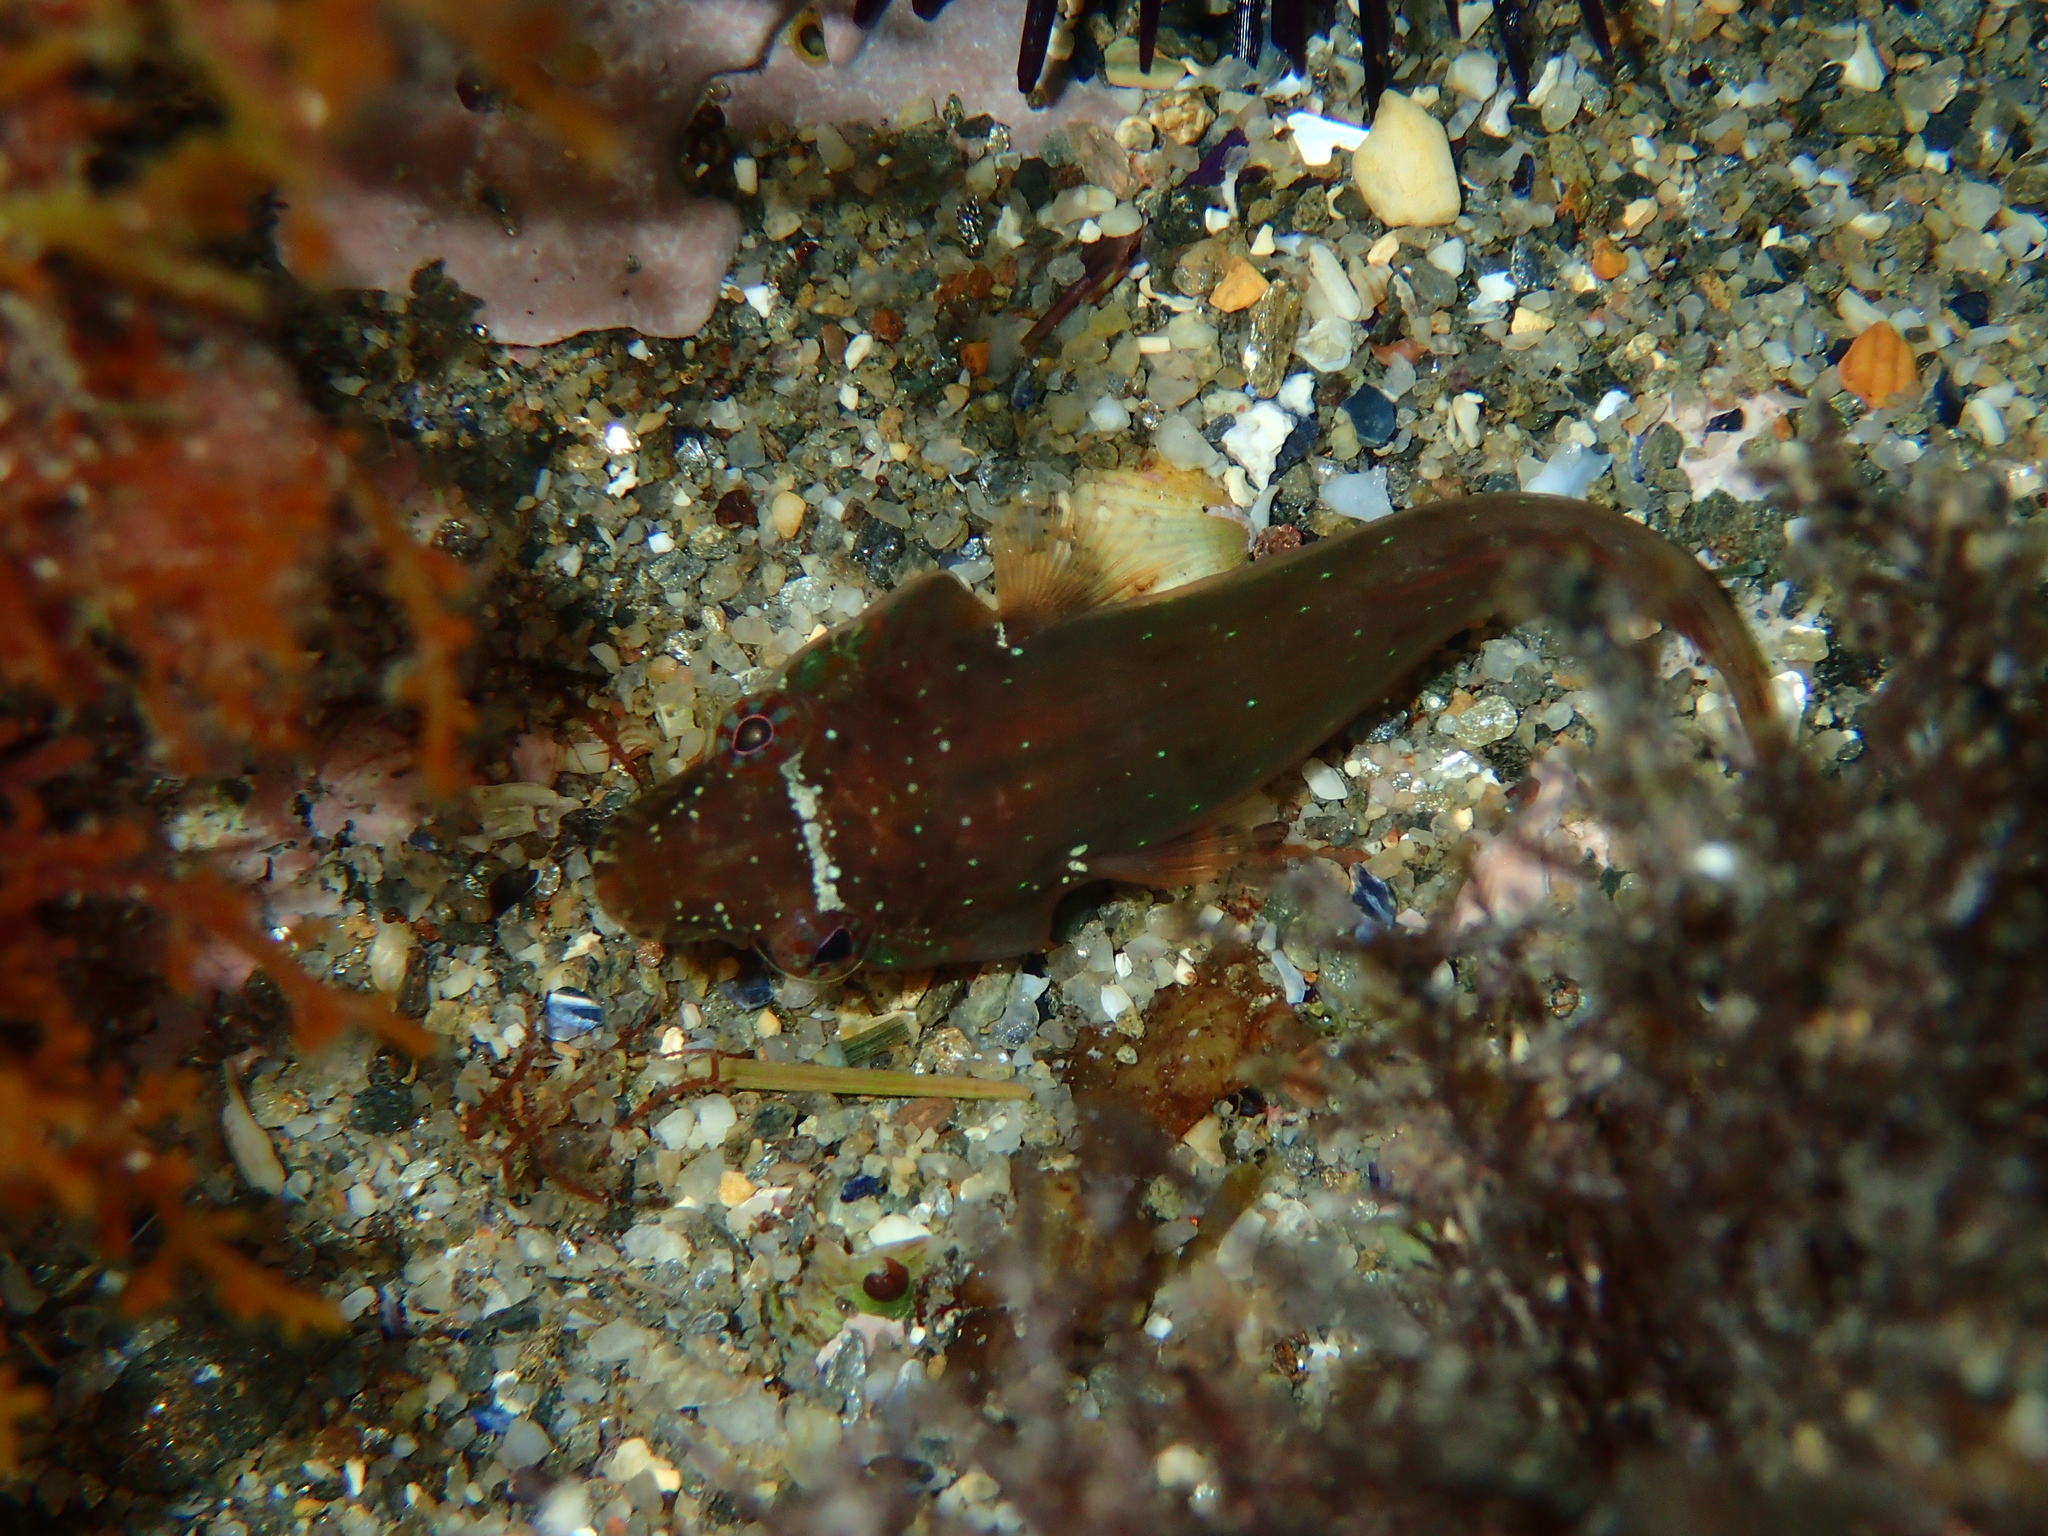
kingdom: Animalia
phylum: Chordata
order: Gobiesociformes
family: Gobiesocidae
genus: Lepadogaster
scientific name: Lepadogaster candolii
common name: Connemarra clingfish
